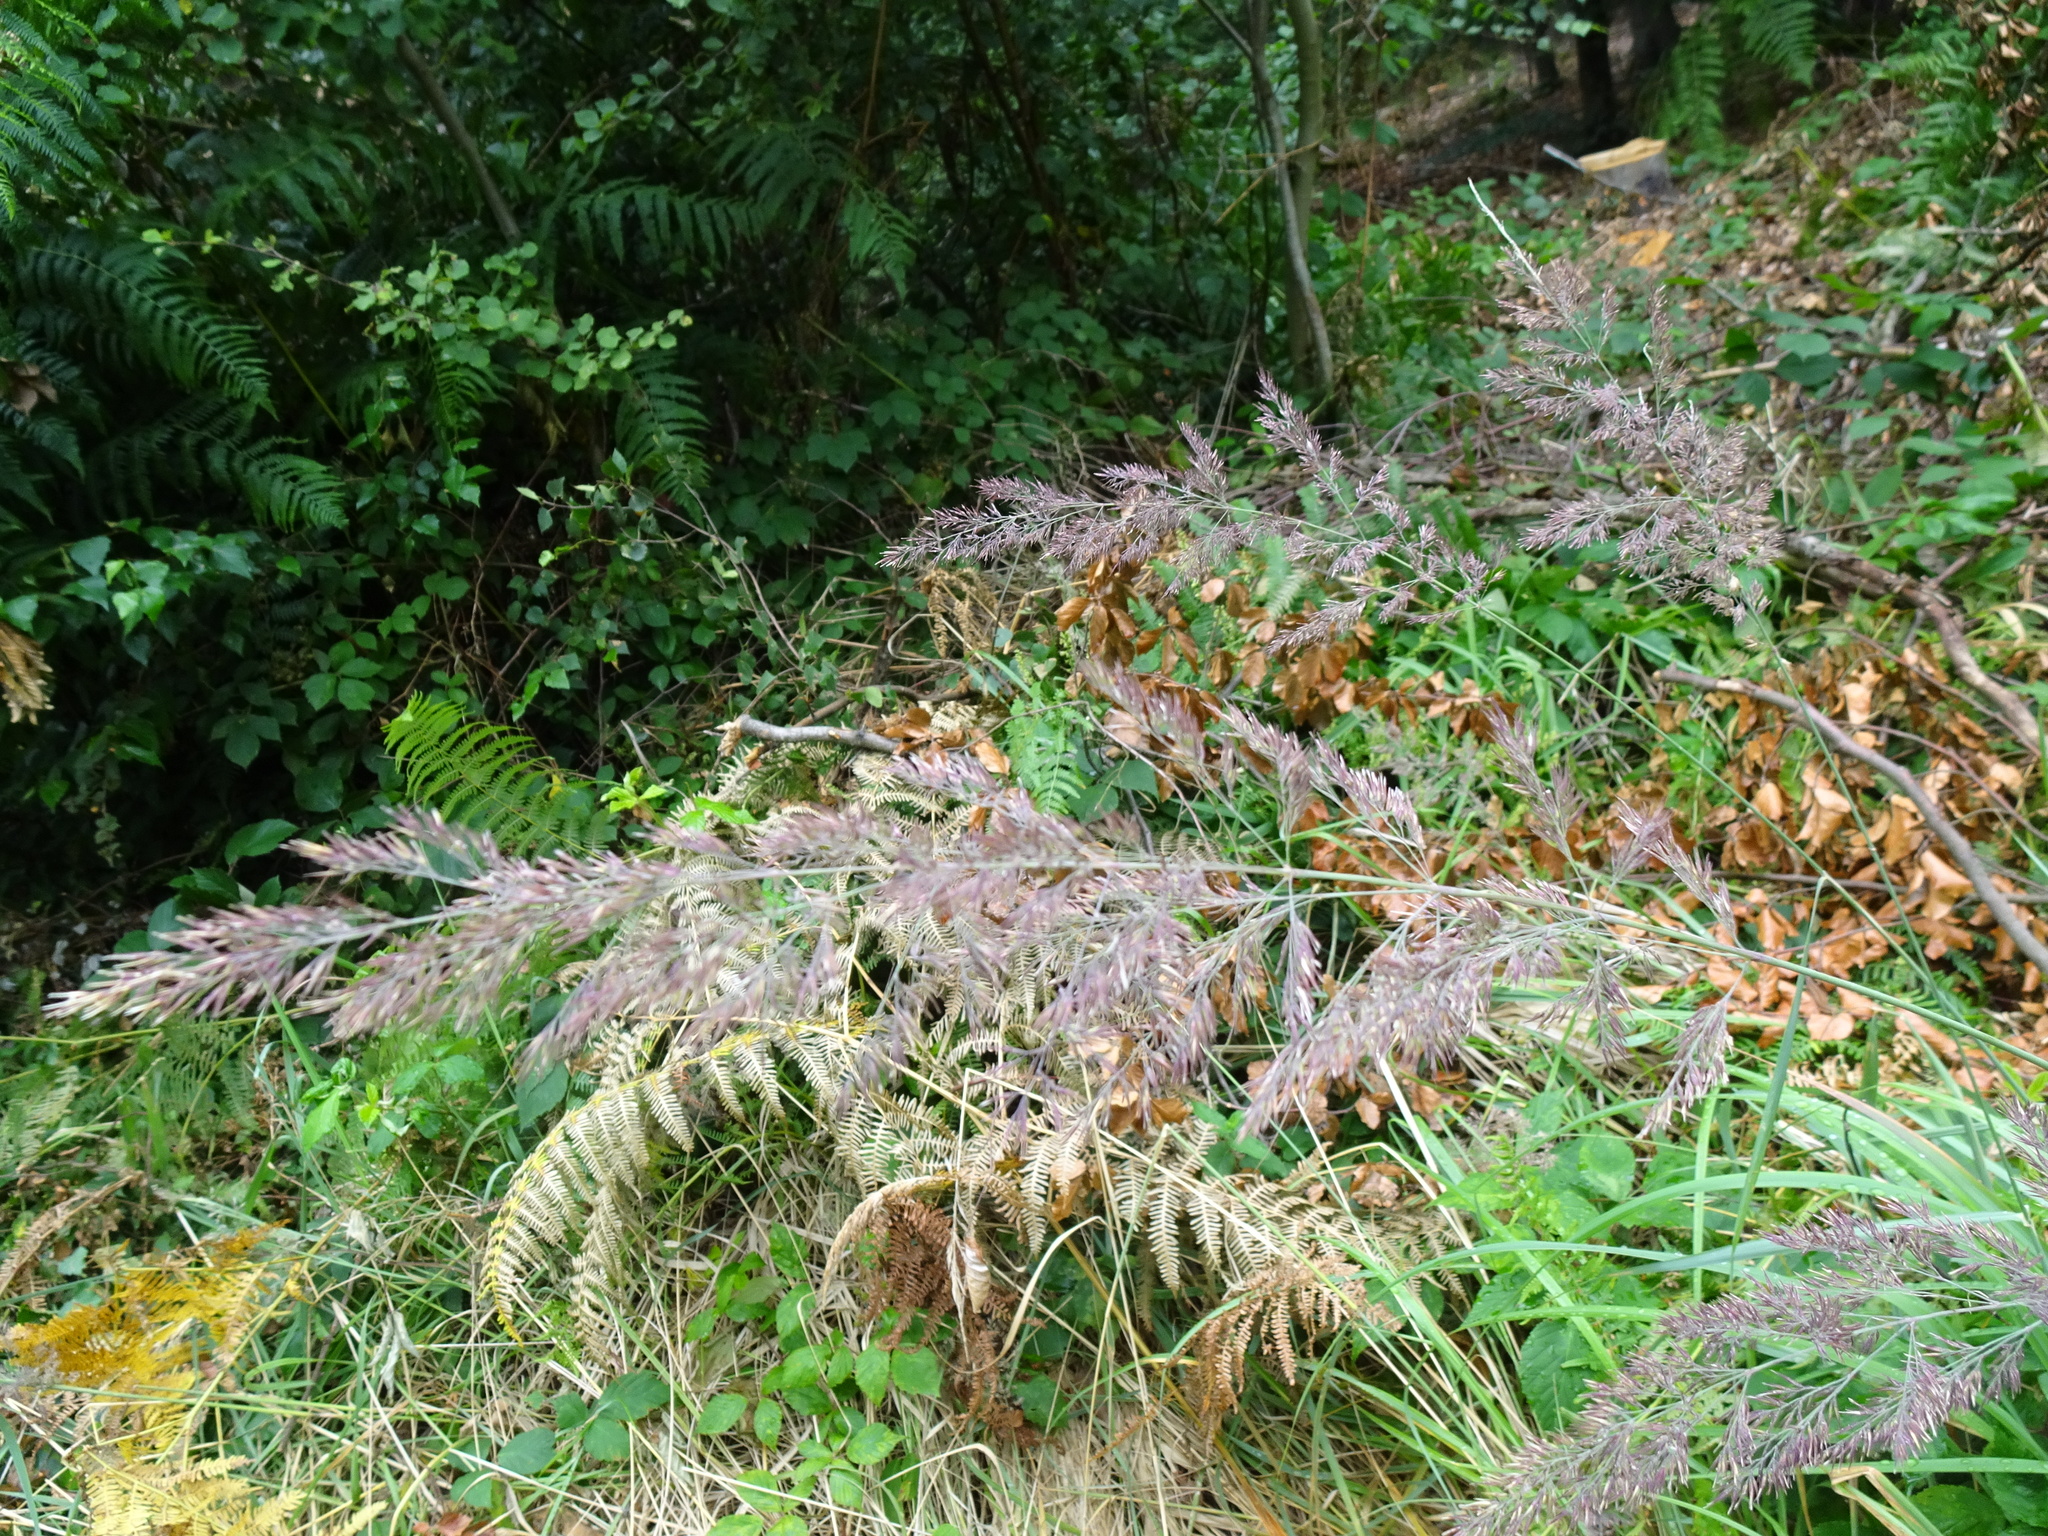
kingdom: Plantae
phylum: Tracheophyta
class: Liliopsida
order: Poales
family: Poaceae
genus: Calamagrostis
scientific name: Calamagrostis epigejos
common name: Wood small-reed
